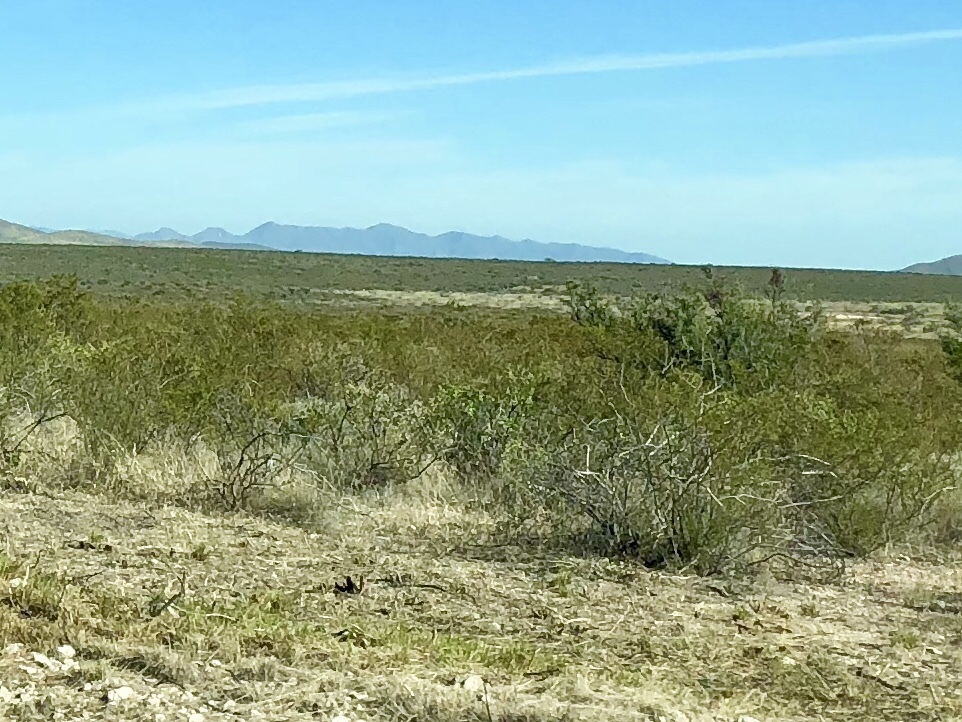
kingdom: Plantae
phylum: Tracheophyta
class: Magnoliopsida
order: Zygophyllales
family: Zygophyllaceae
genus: Larrea
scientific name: Larrea tridentata
